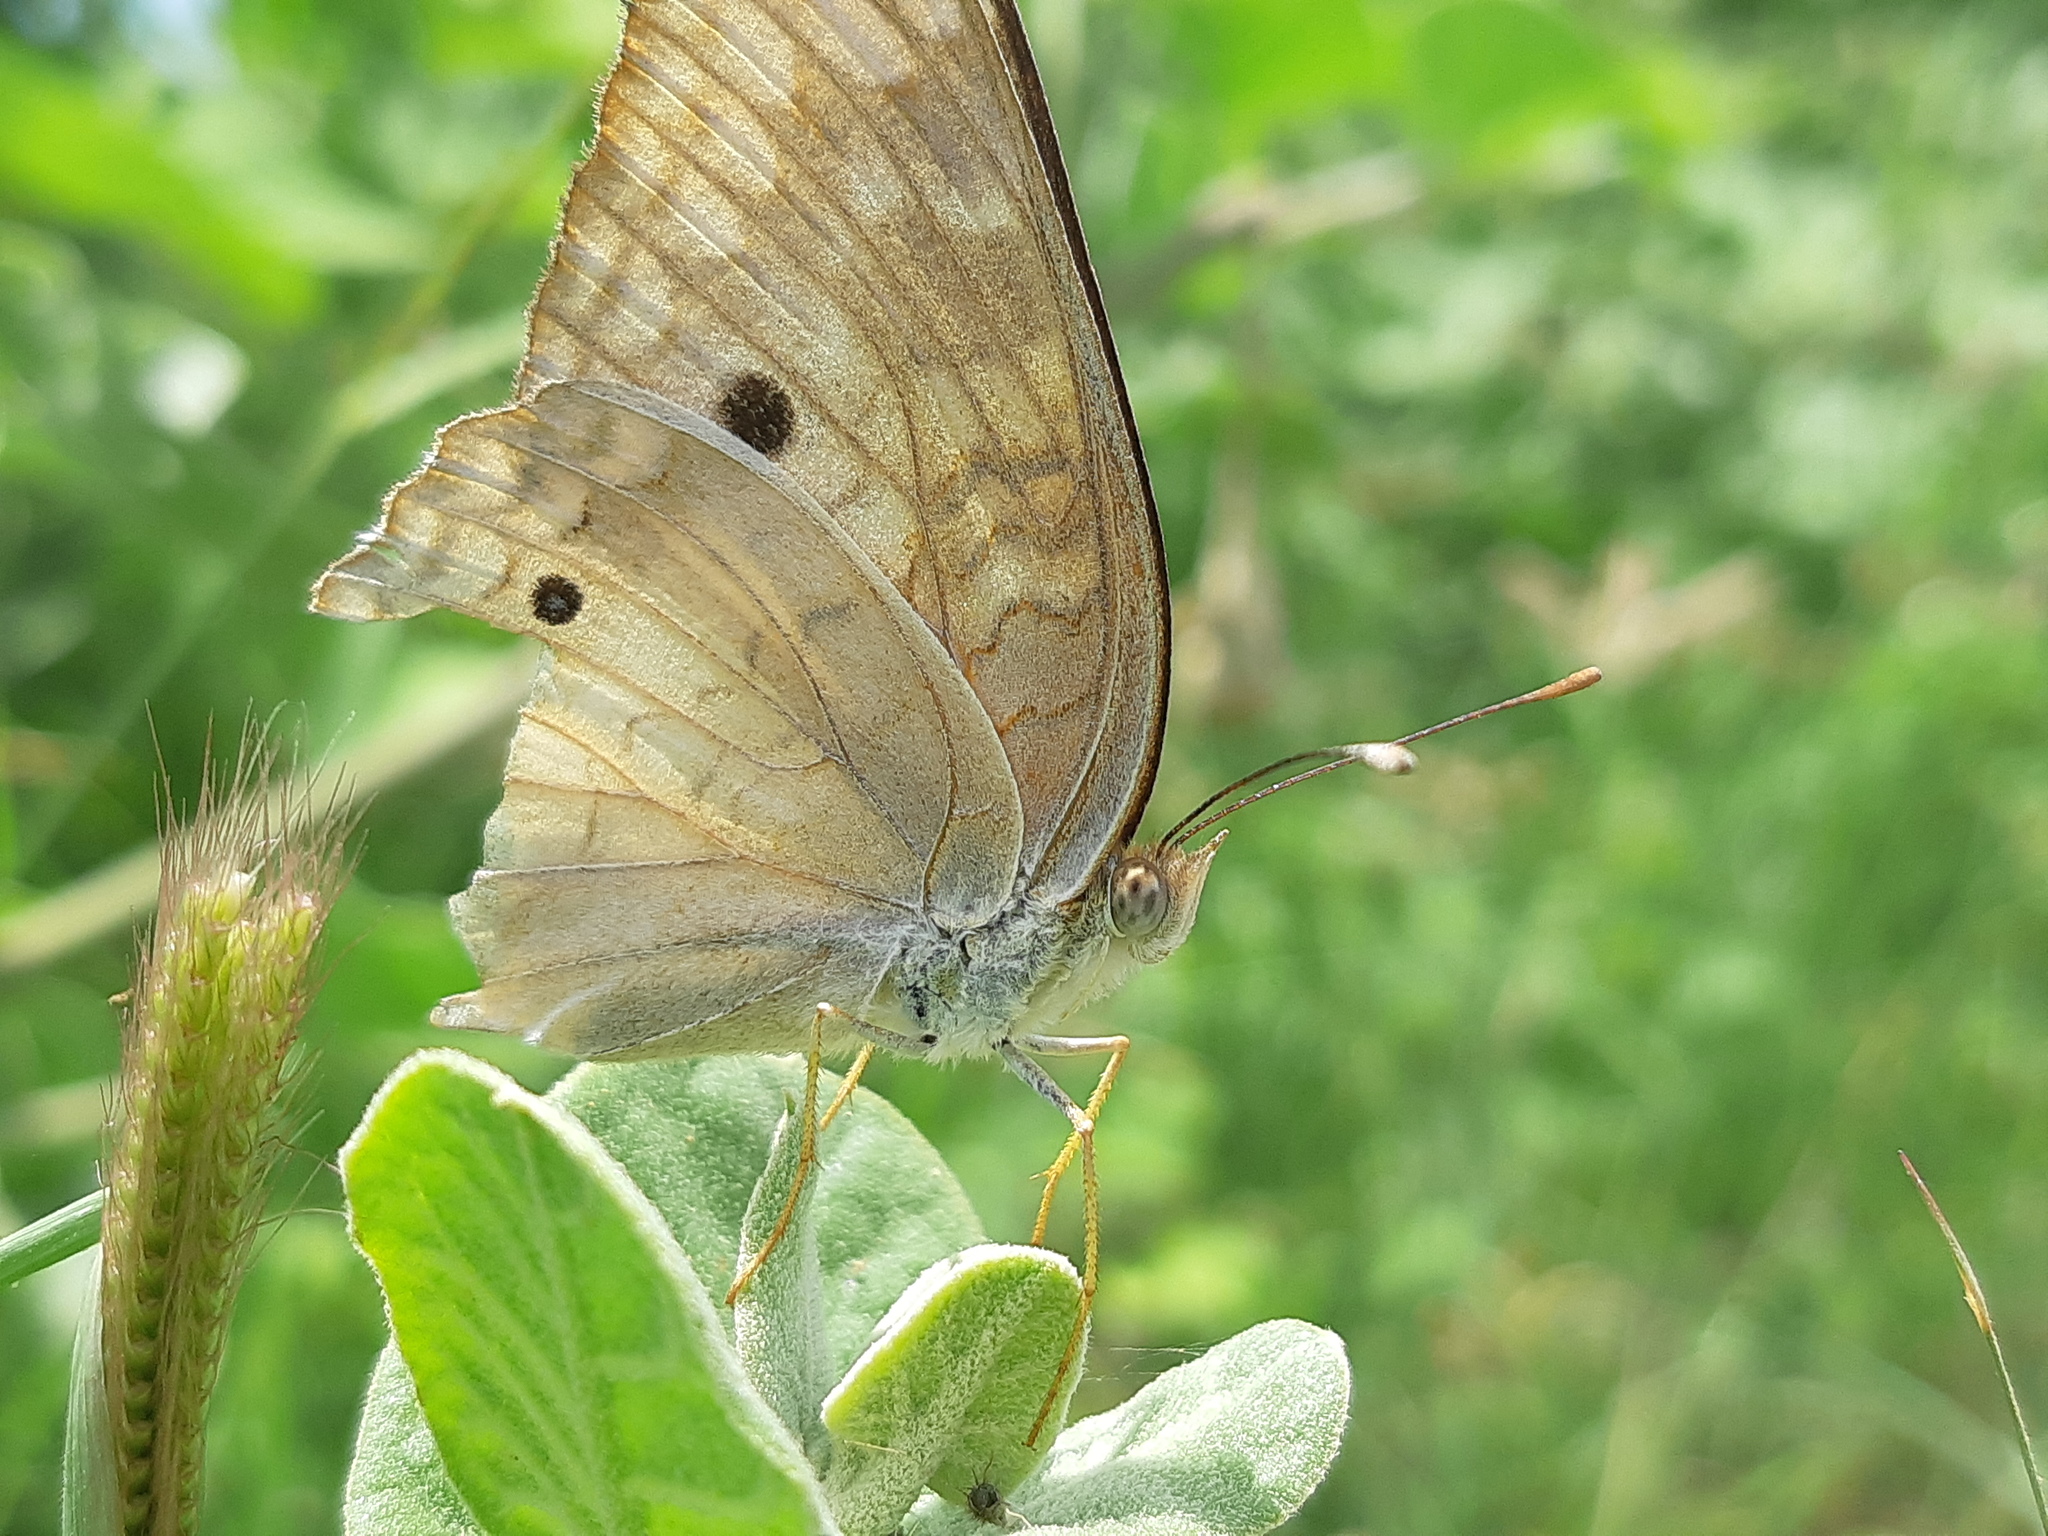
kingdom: Animalia
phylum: Arthropoda
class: Insecta
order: Lepidoptera
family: Nymphalidae
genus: Anartia
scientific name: Anartia jatrophae
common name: White peacock
